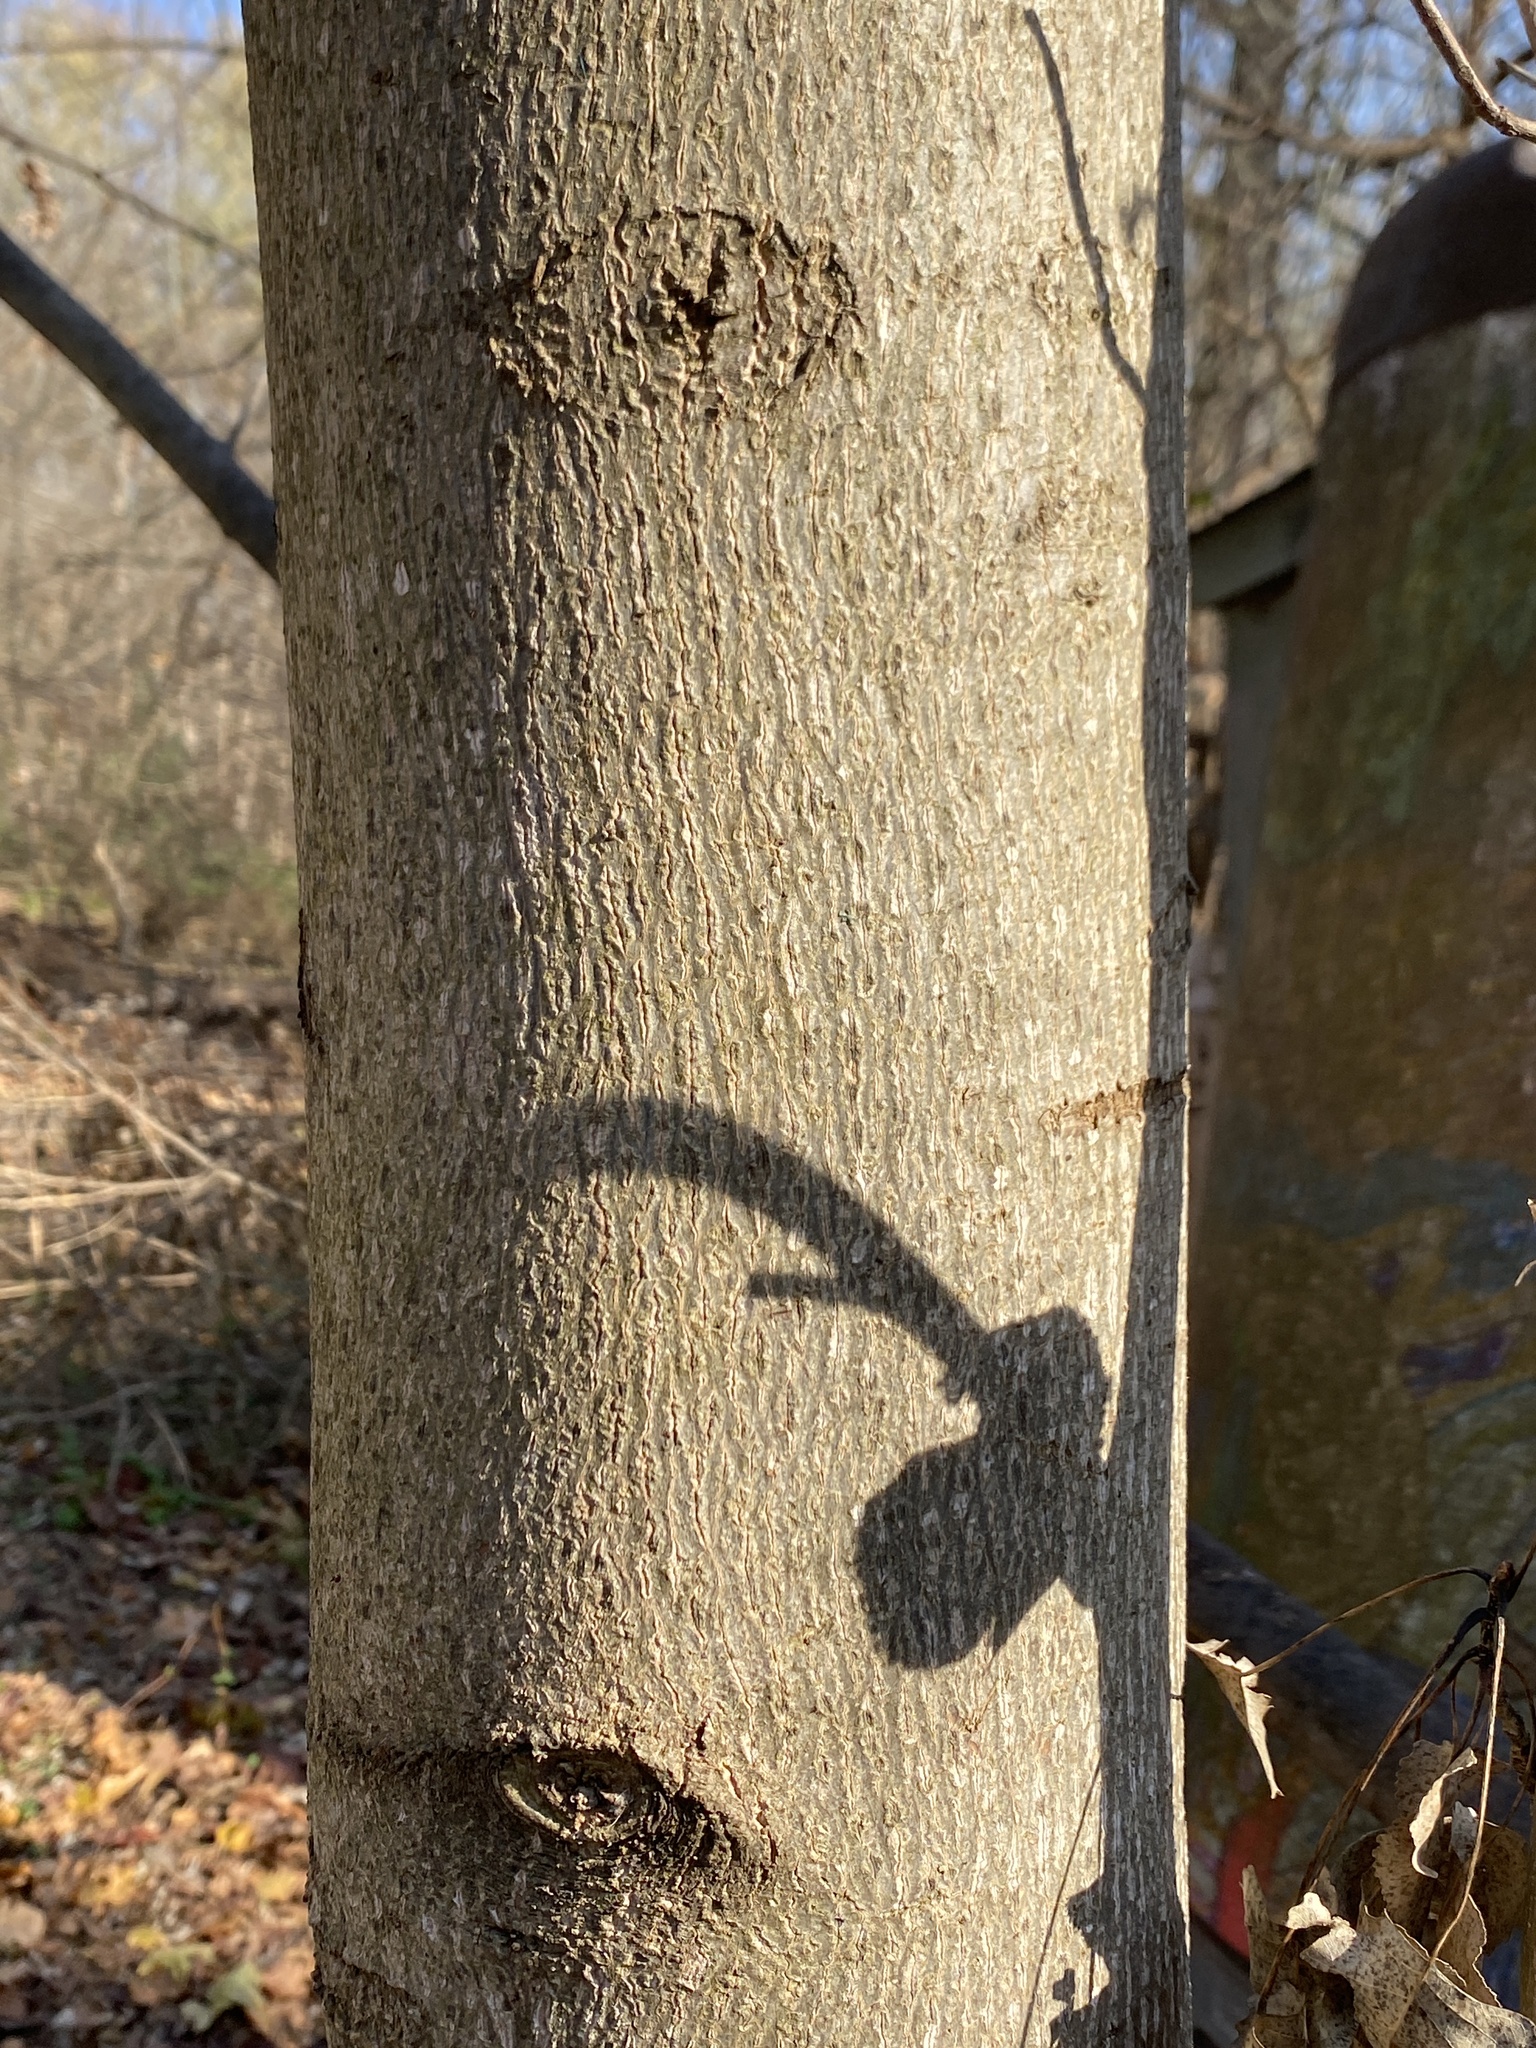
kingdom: Plantae
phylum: Tracheophyta
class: Magnoliopsida
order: Magnoliales
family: Magnoliaceae
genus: Liriodendron
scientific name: Liriodendron tulipifera
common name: Tulip tree
